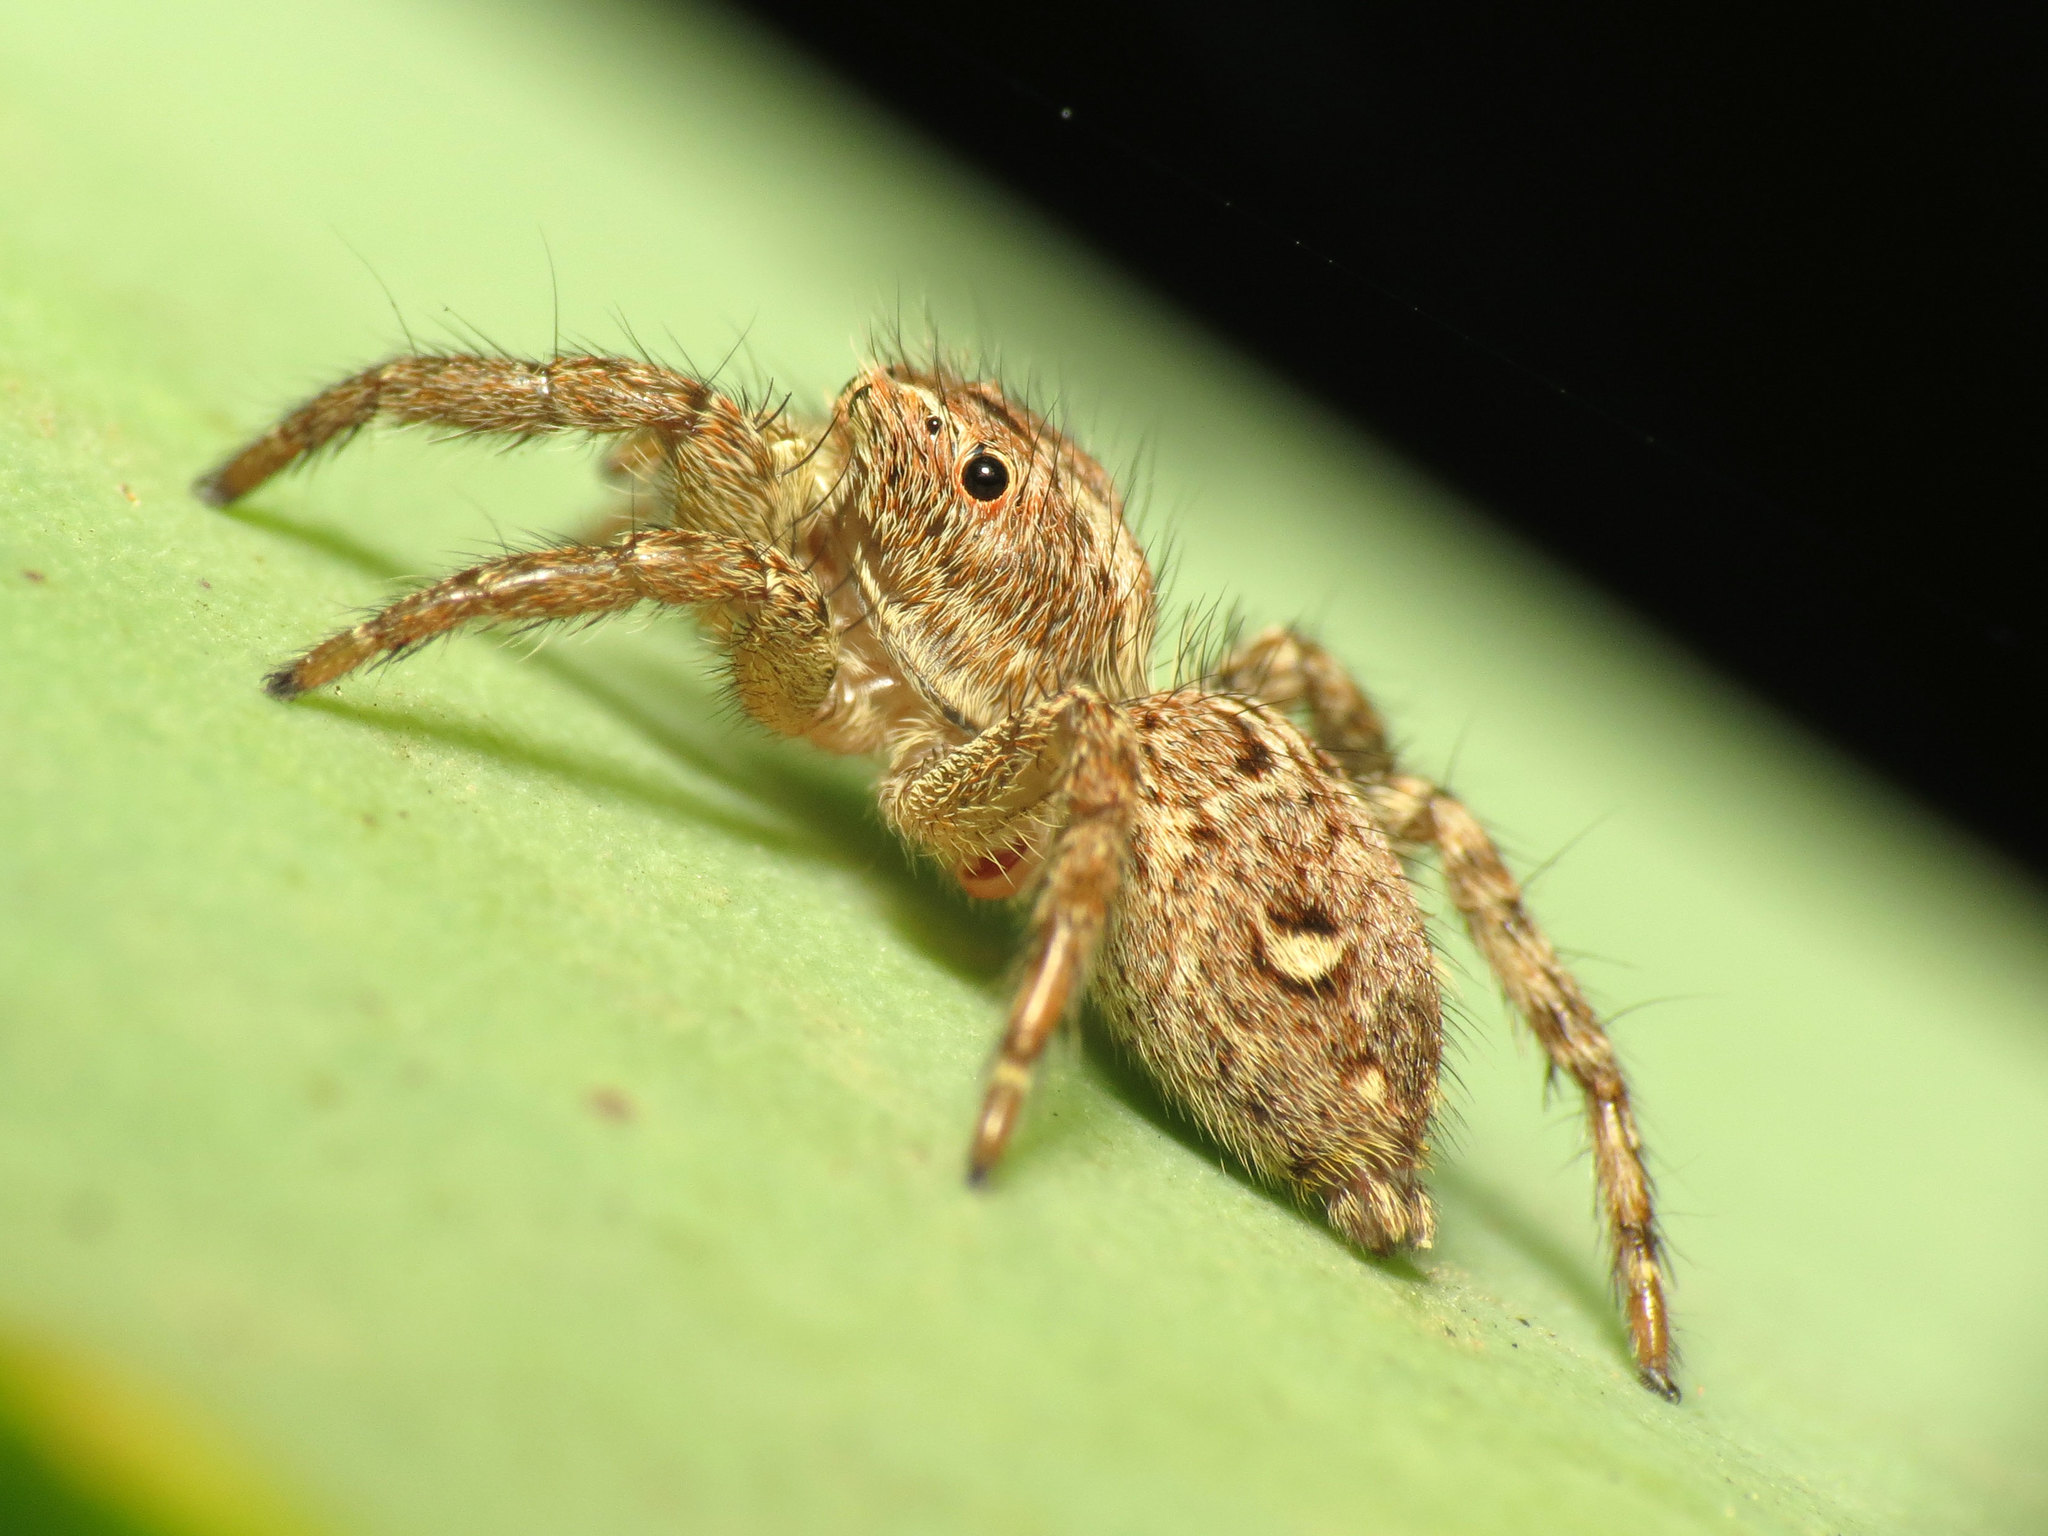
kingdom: Animalia
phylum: Arthropoda
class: Arachnida
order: Araneae
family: Salticidae
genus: Plexippus
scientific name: Plexippus paykulli
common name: Pantropical jumper
